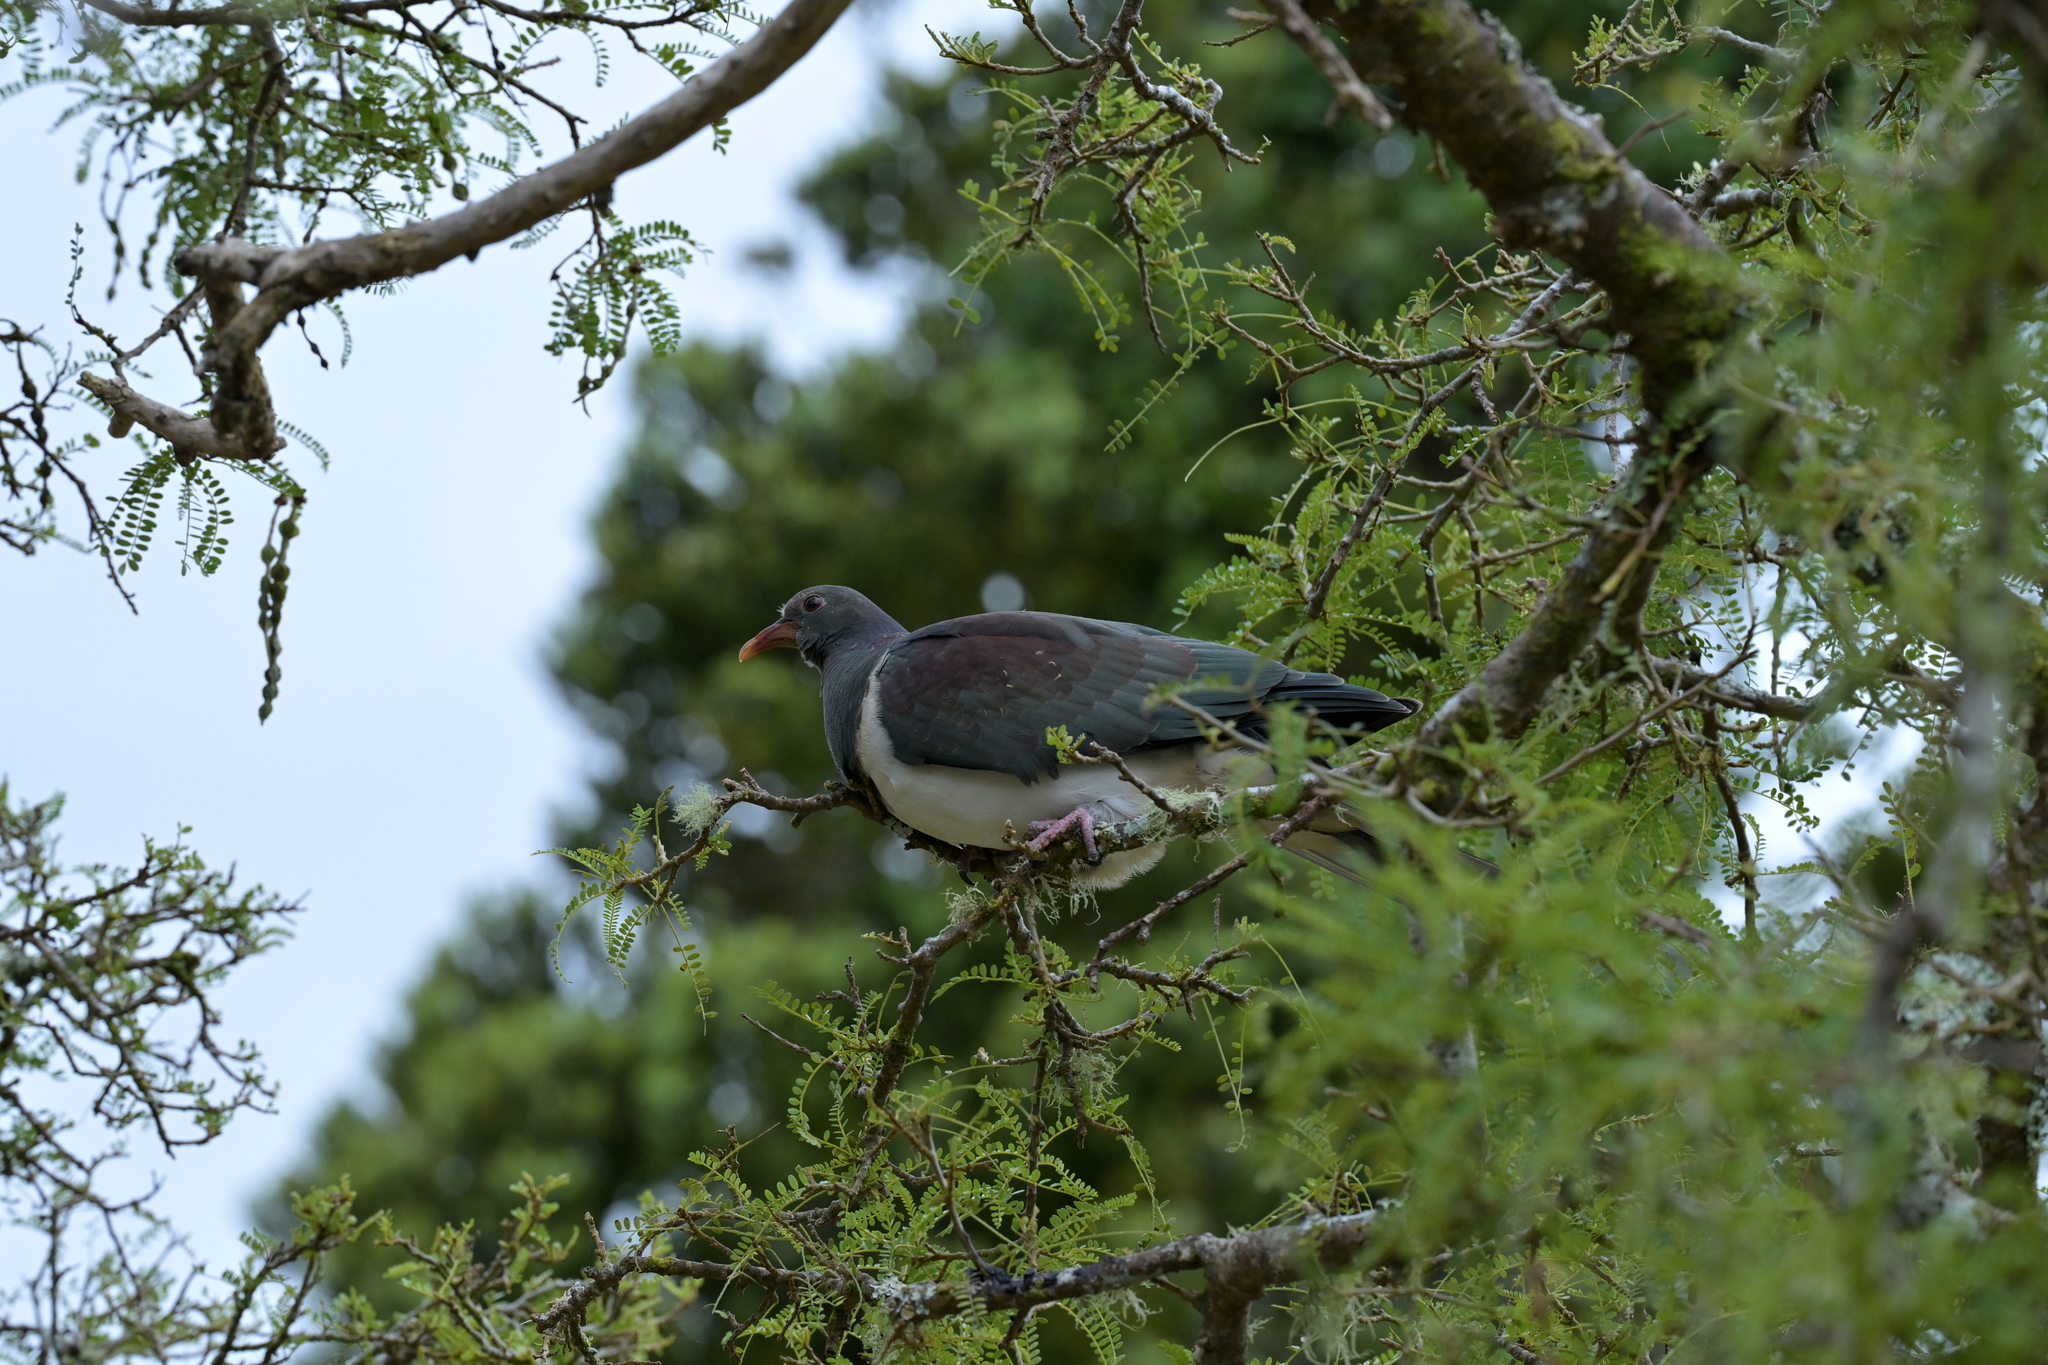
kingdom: Animalia
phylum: Chordata
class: Aves
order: Columbiformes
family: Columbidae
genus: Hemiphaga
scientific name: Hemiphaga novaeseelandiae
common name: New zealand pigeon
